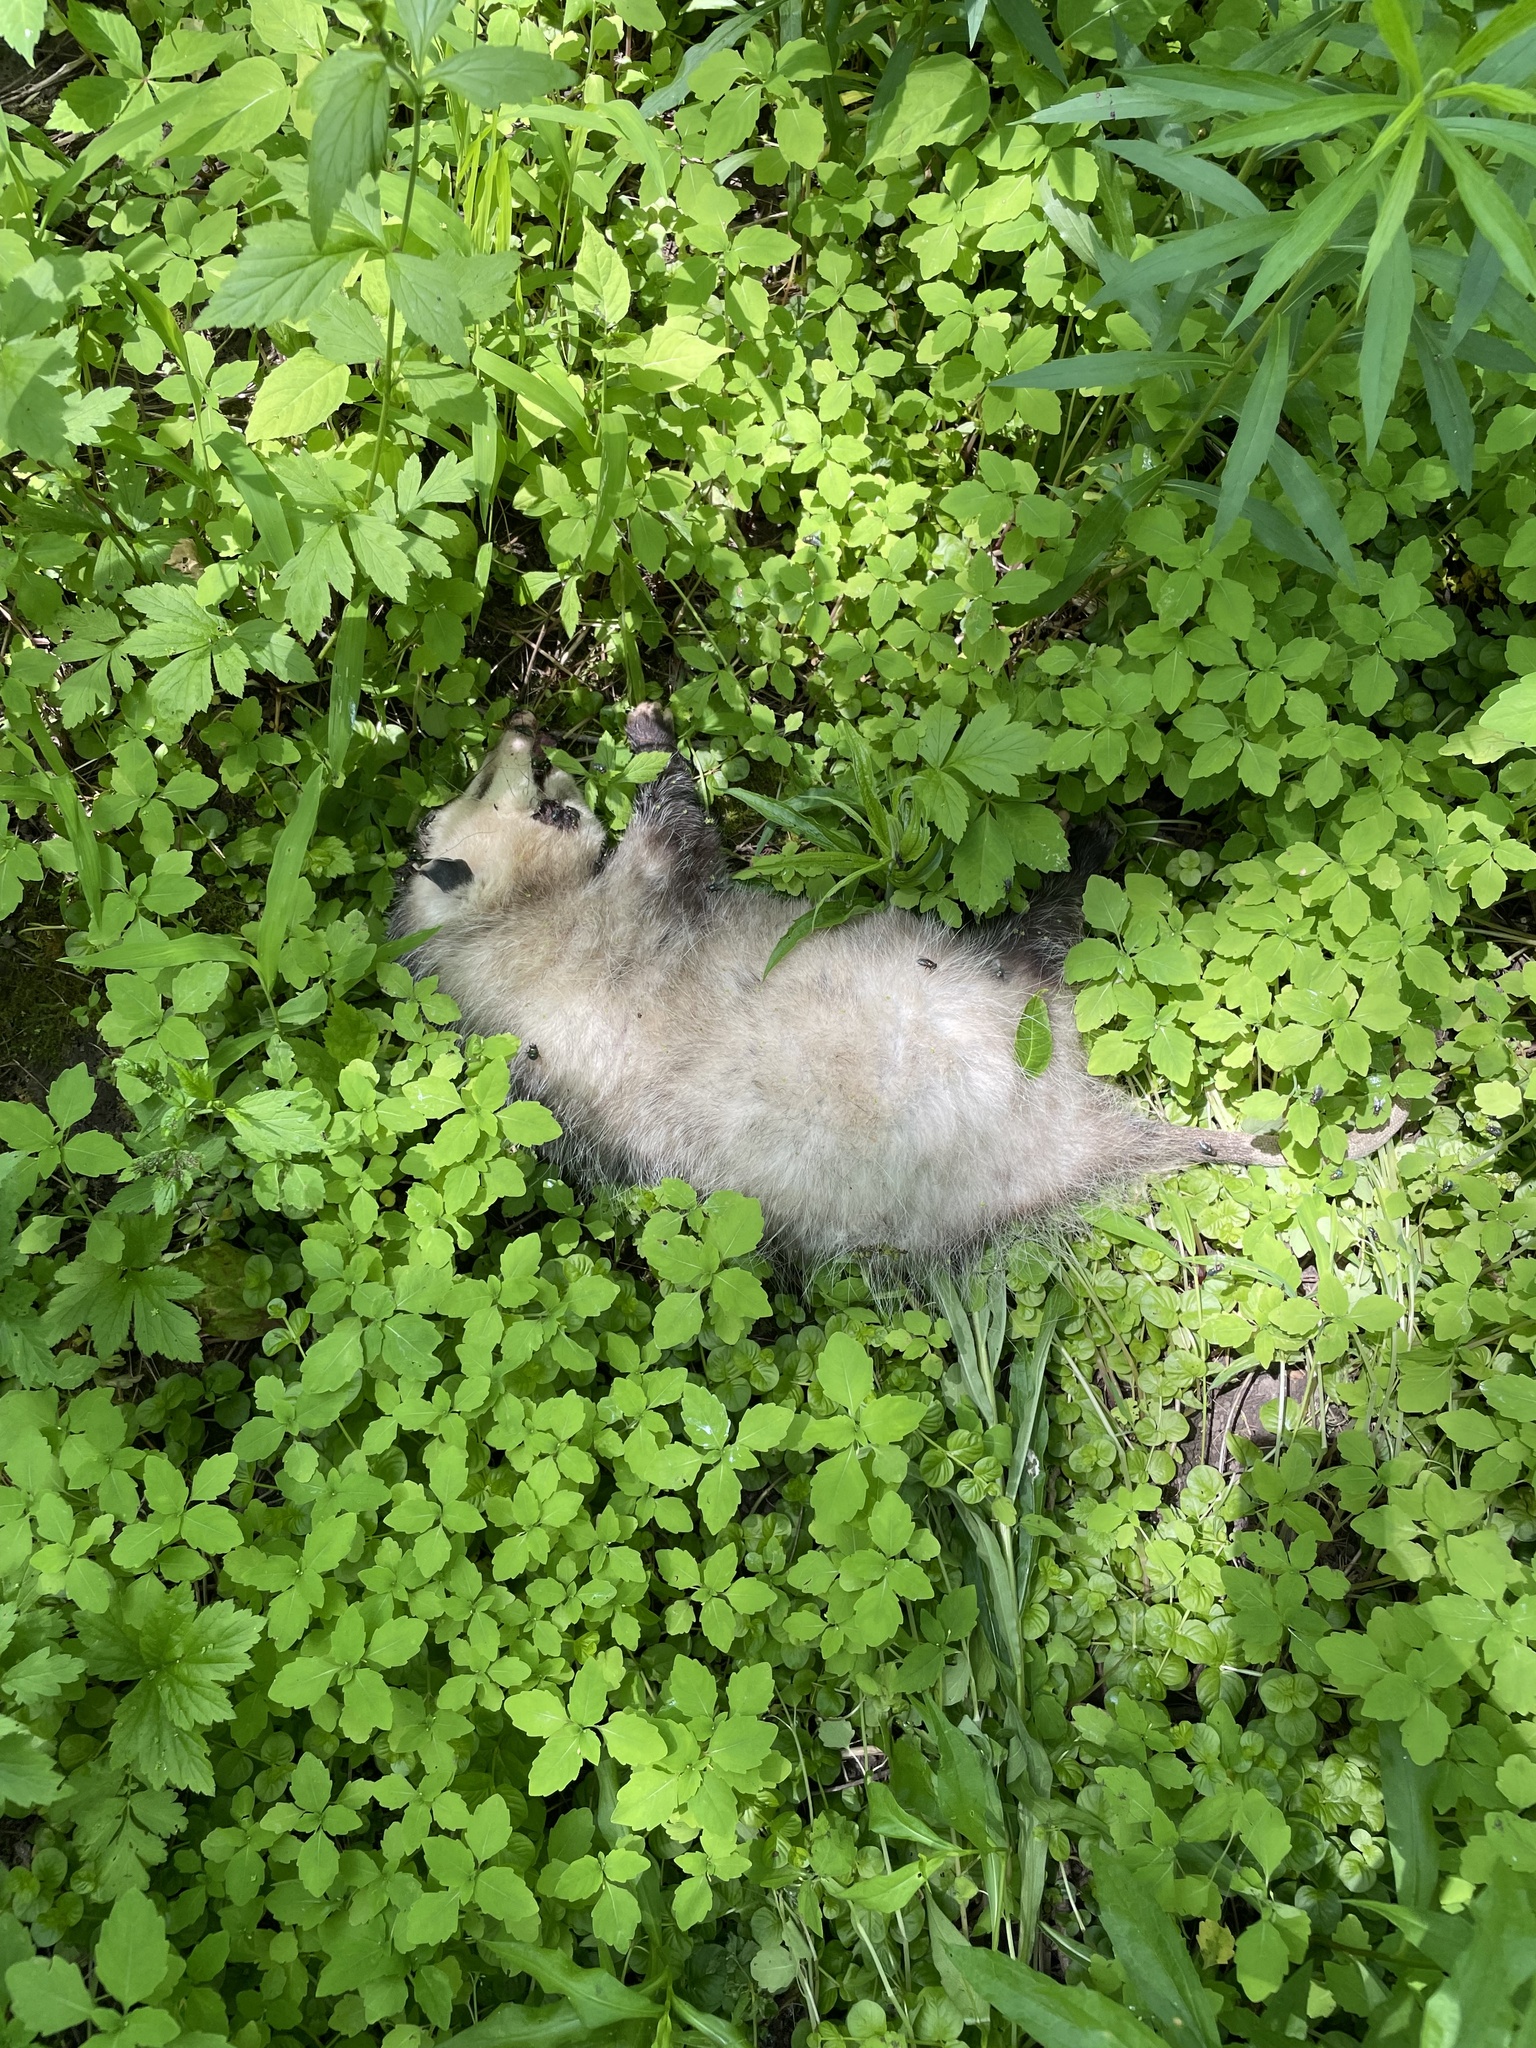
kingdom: Animalia
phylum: Chordata
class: Mammalia
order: Didelphimorphia
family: Didelphidae
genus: Didelphis
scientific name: Didelphis virginiana
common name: Virginia opossum
